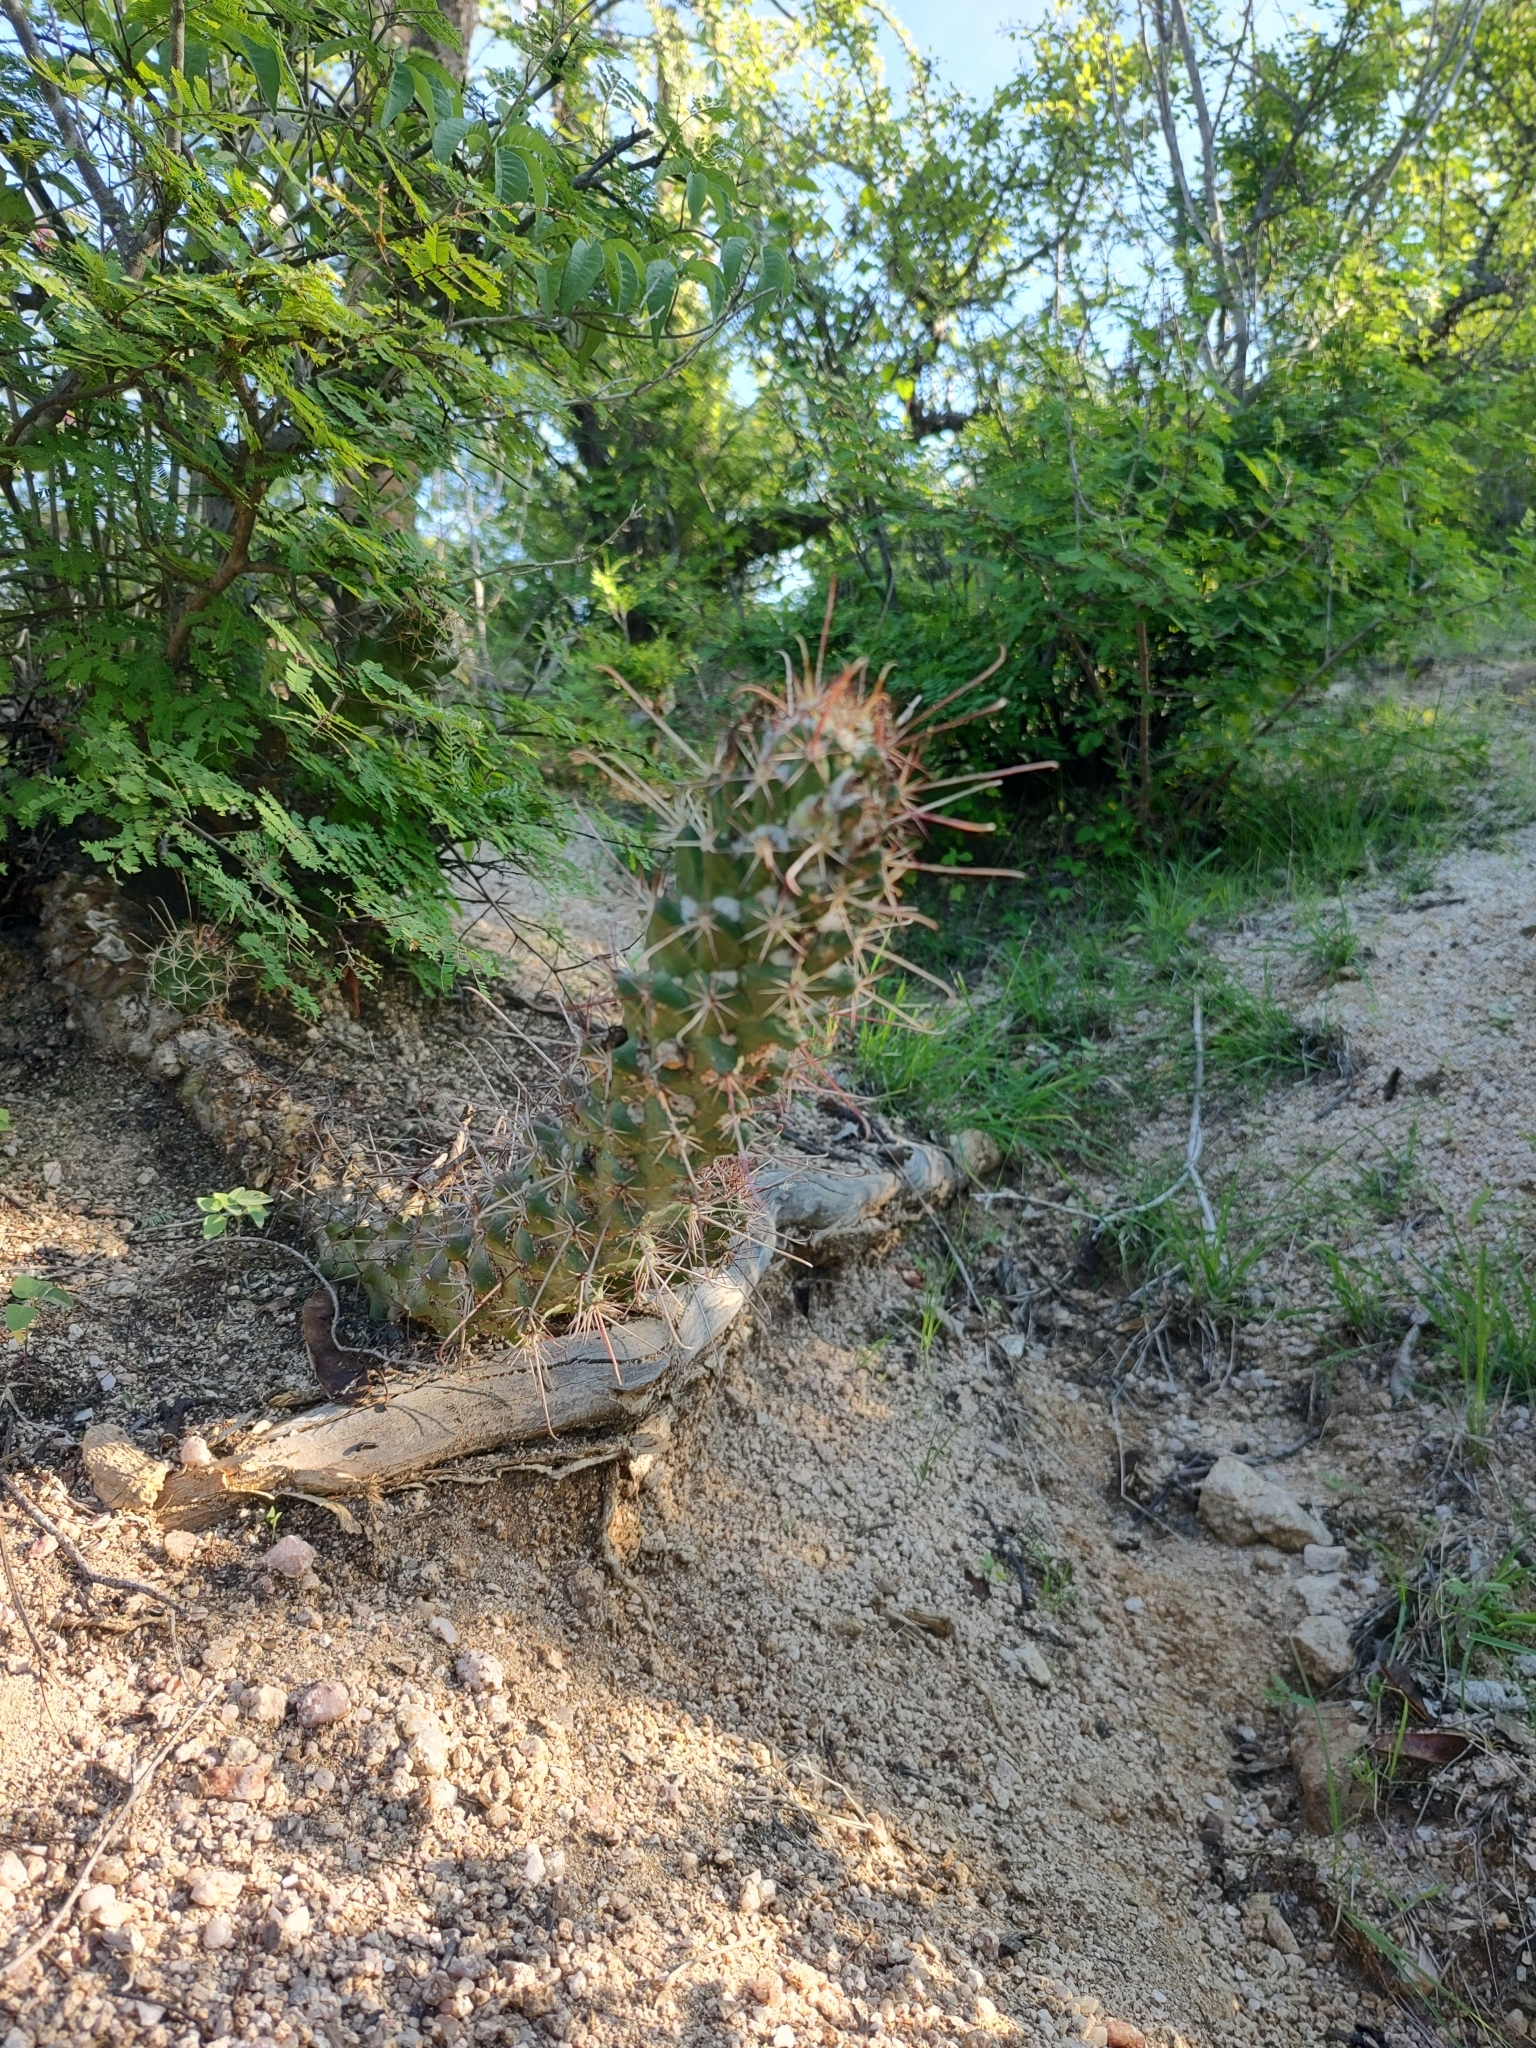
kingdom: Plantae
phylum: Tracheophyta
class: Magnoliopsida
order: Caryophyllales
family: Cactaceae
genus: Cochemiea
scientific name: Cochemiea poselgeri
